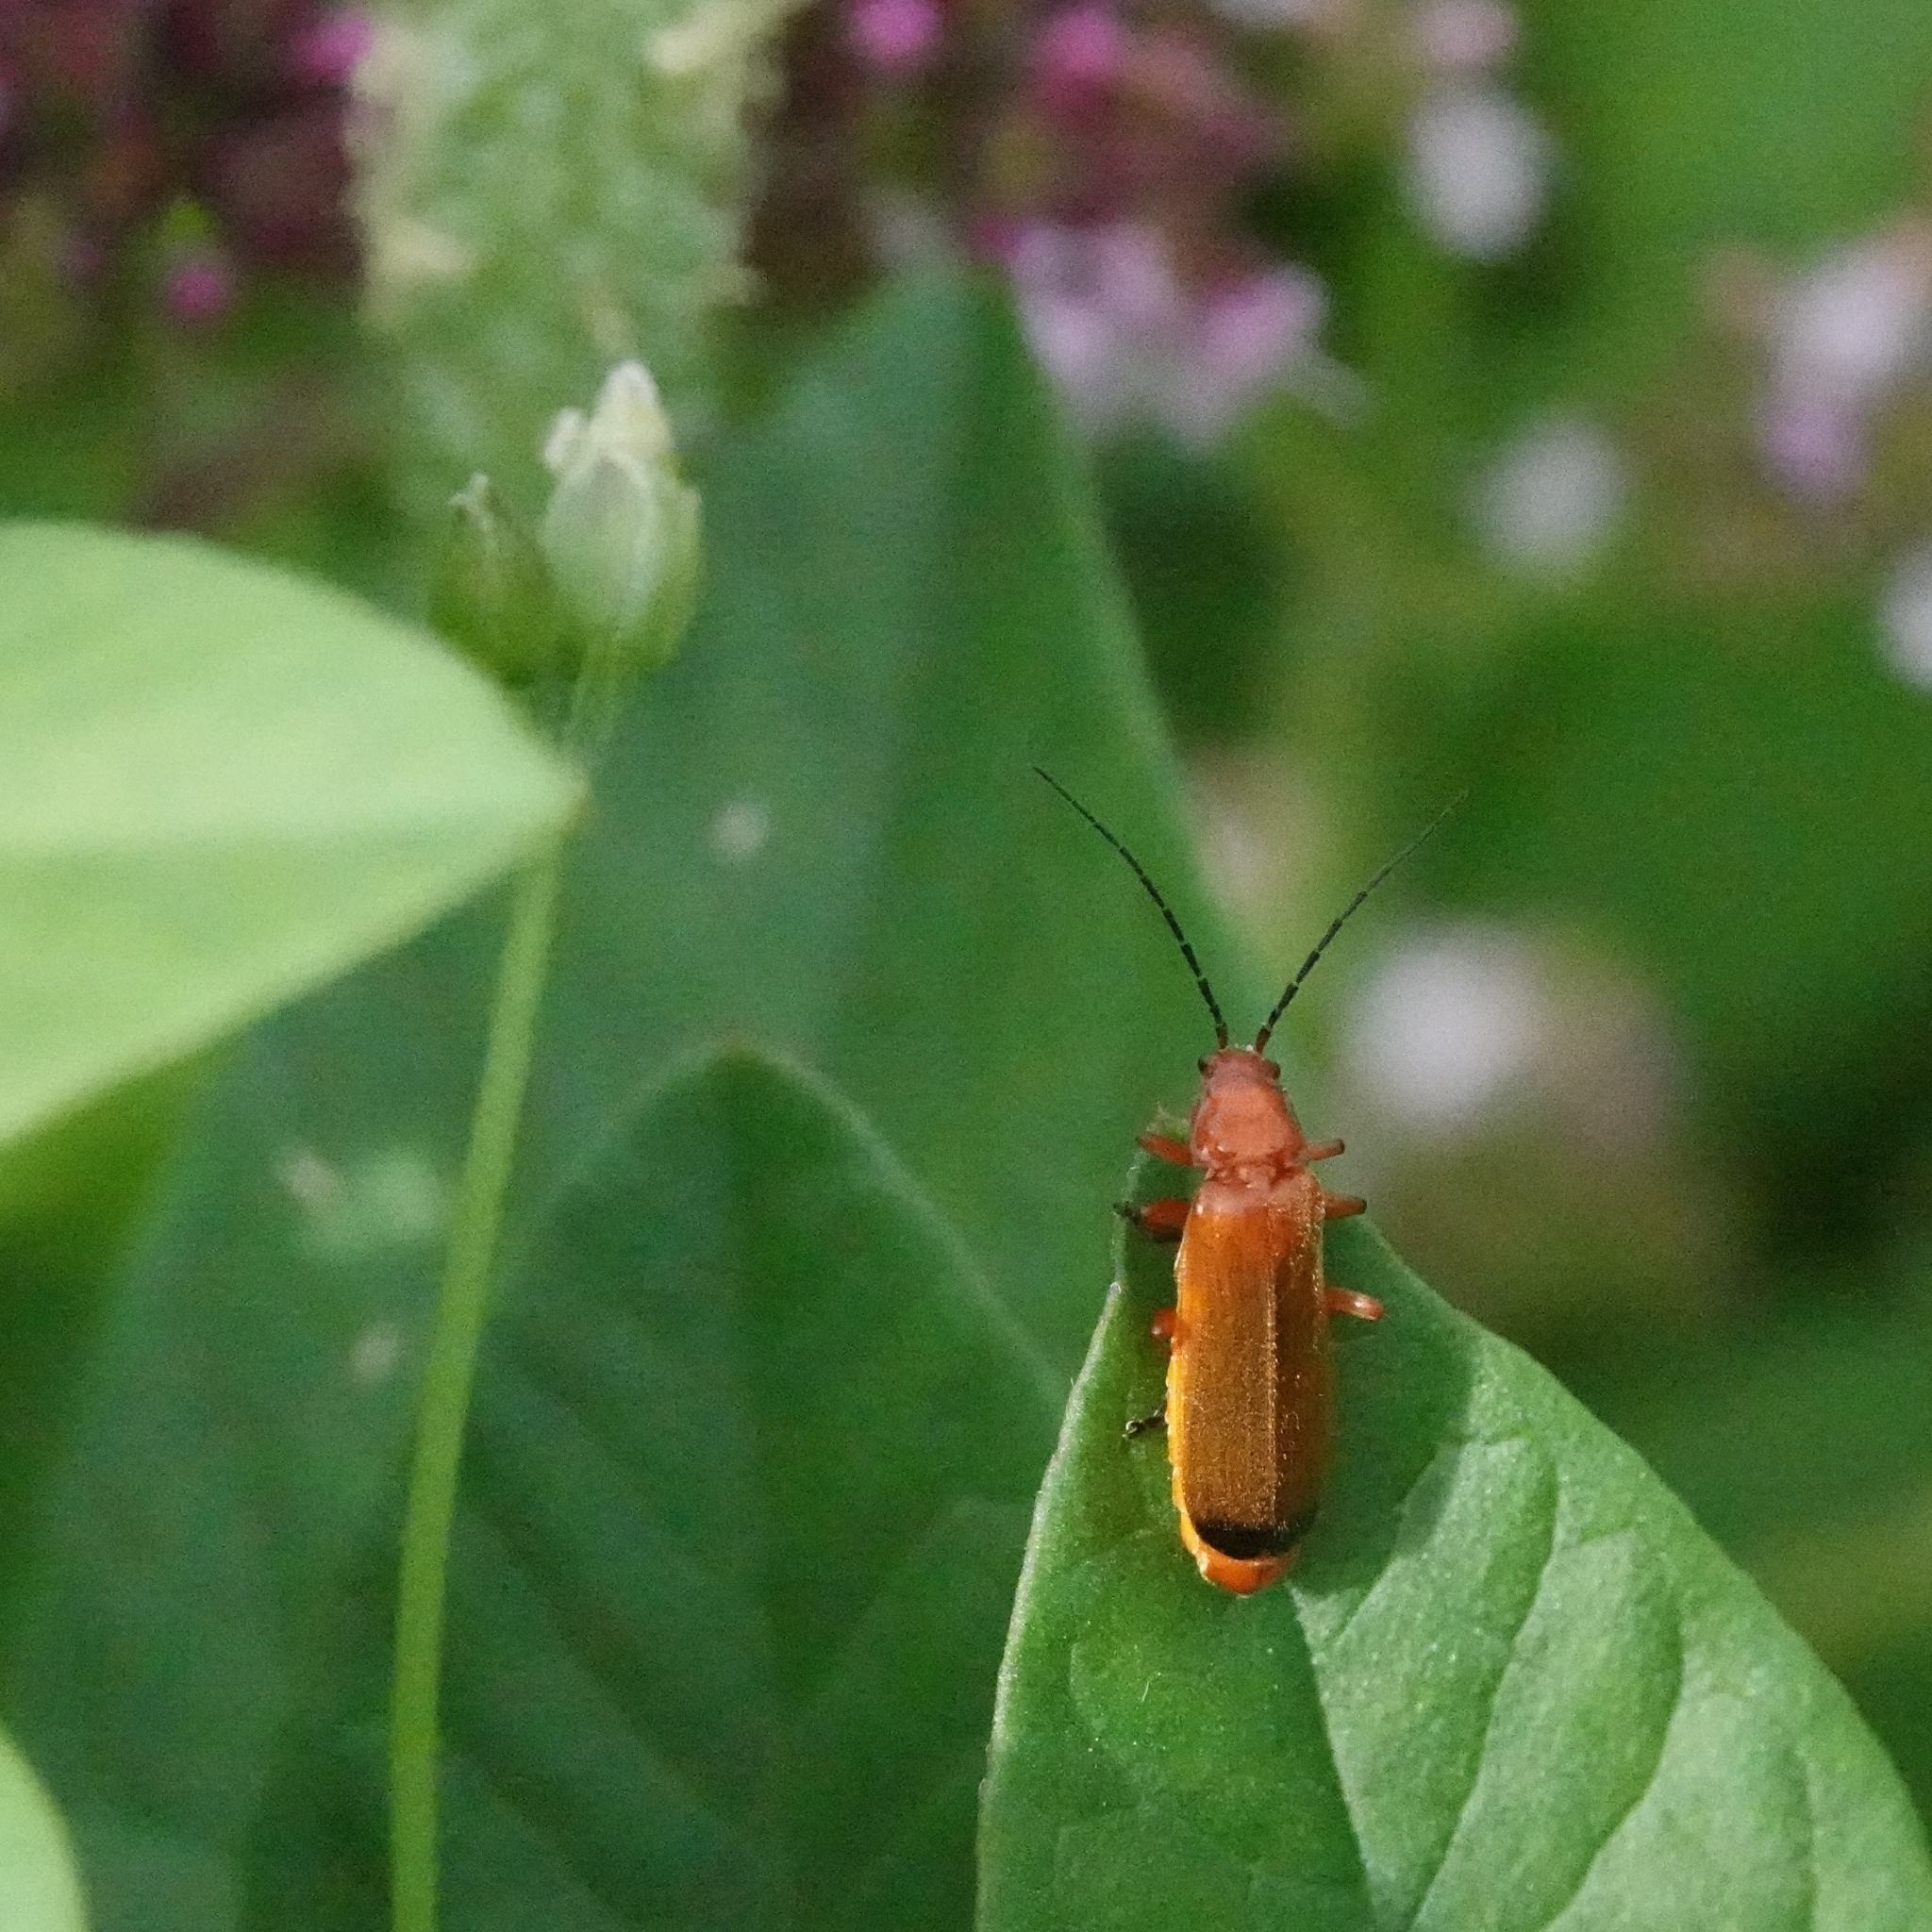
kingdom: Animalia
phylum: Arthropoda
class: Insecta
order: Coleoptera
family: Cantharidae
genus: Rhagonycha
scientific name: Rhagonycha fulva
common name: Common red soldier beetle
